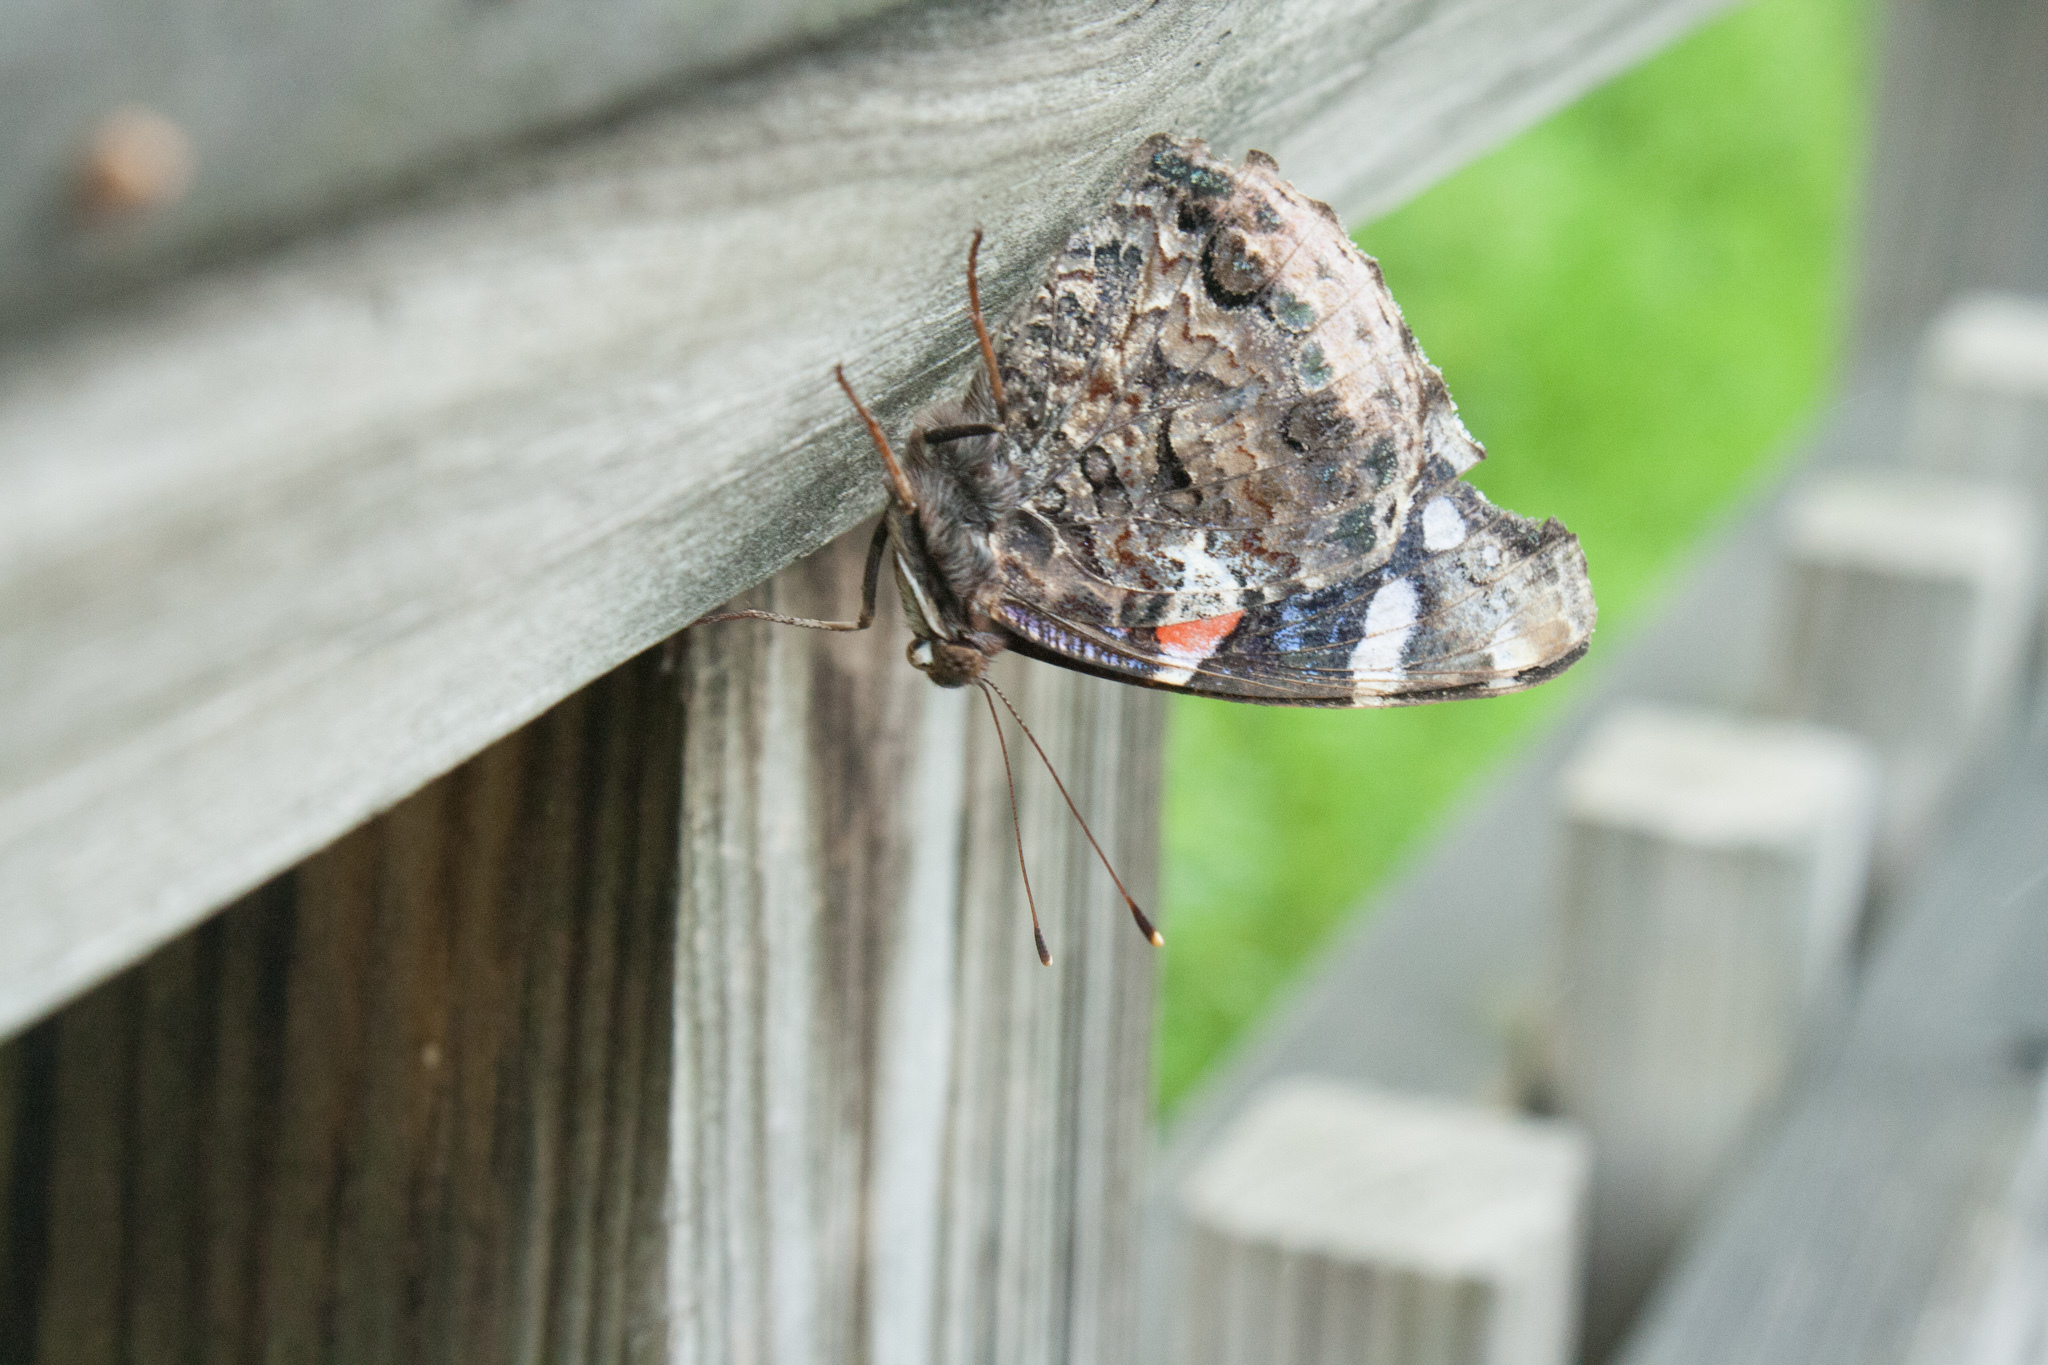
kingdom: Animalia
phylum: Arthropoda
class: Insecta
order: Lepidoptera
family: Nymphalidae
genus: Vanessa
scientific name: Vanessa atalanta
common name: Red admiral
